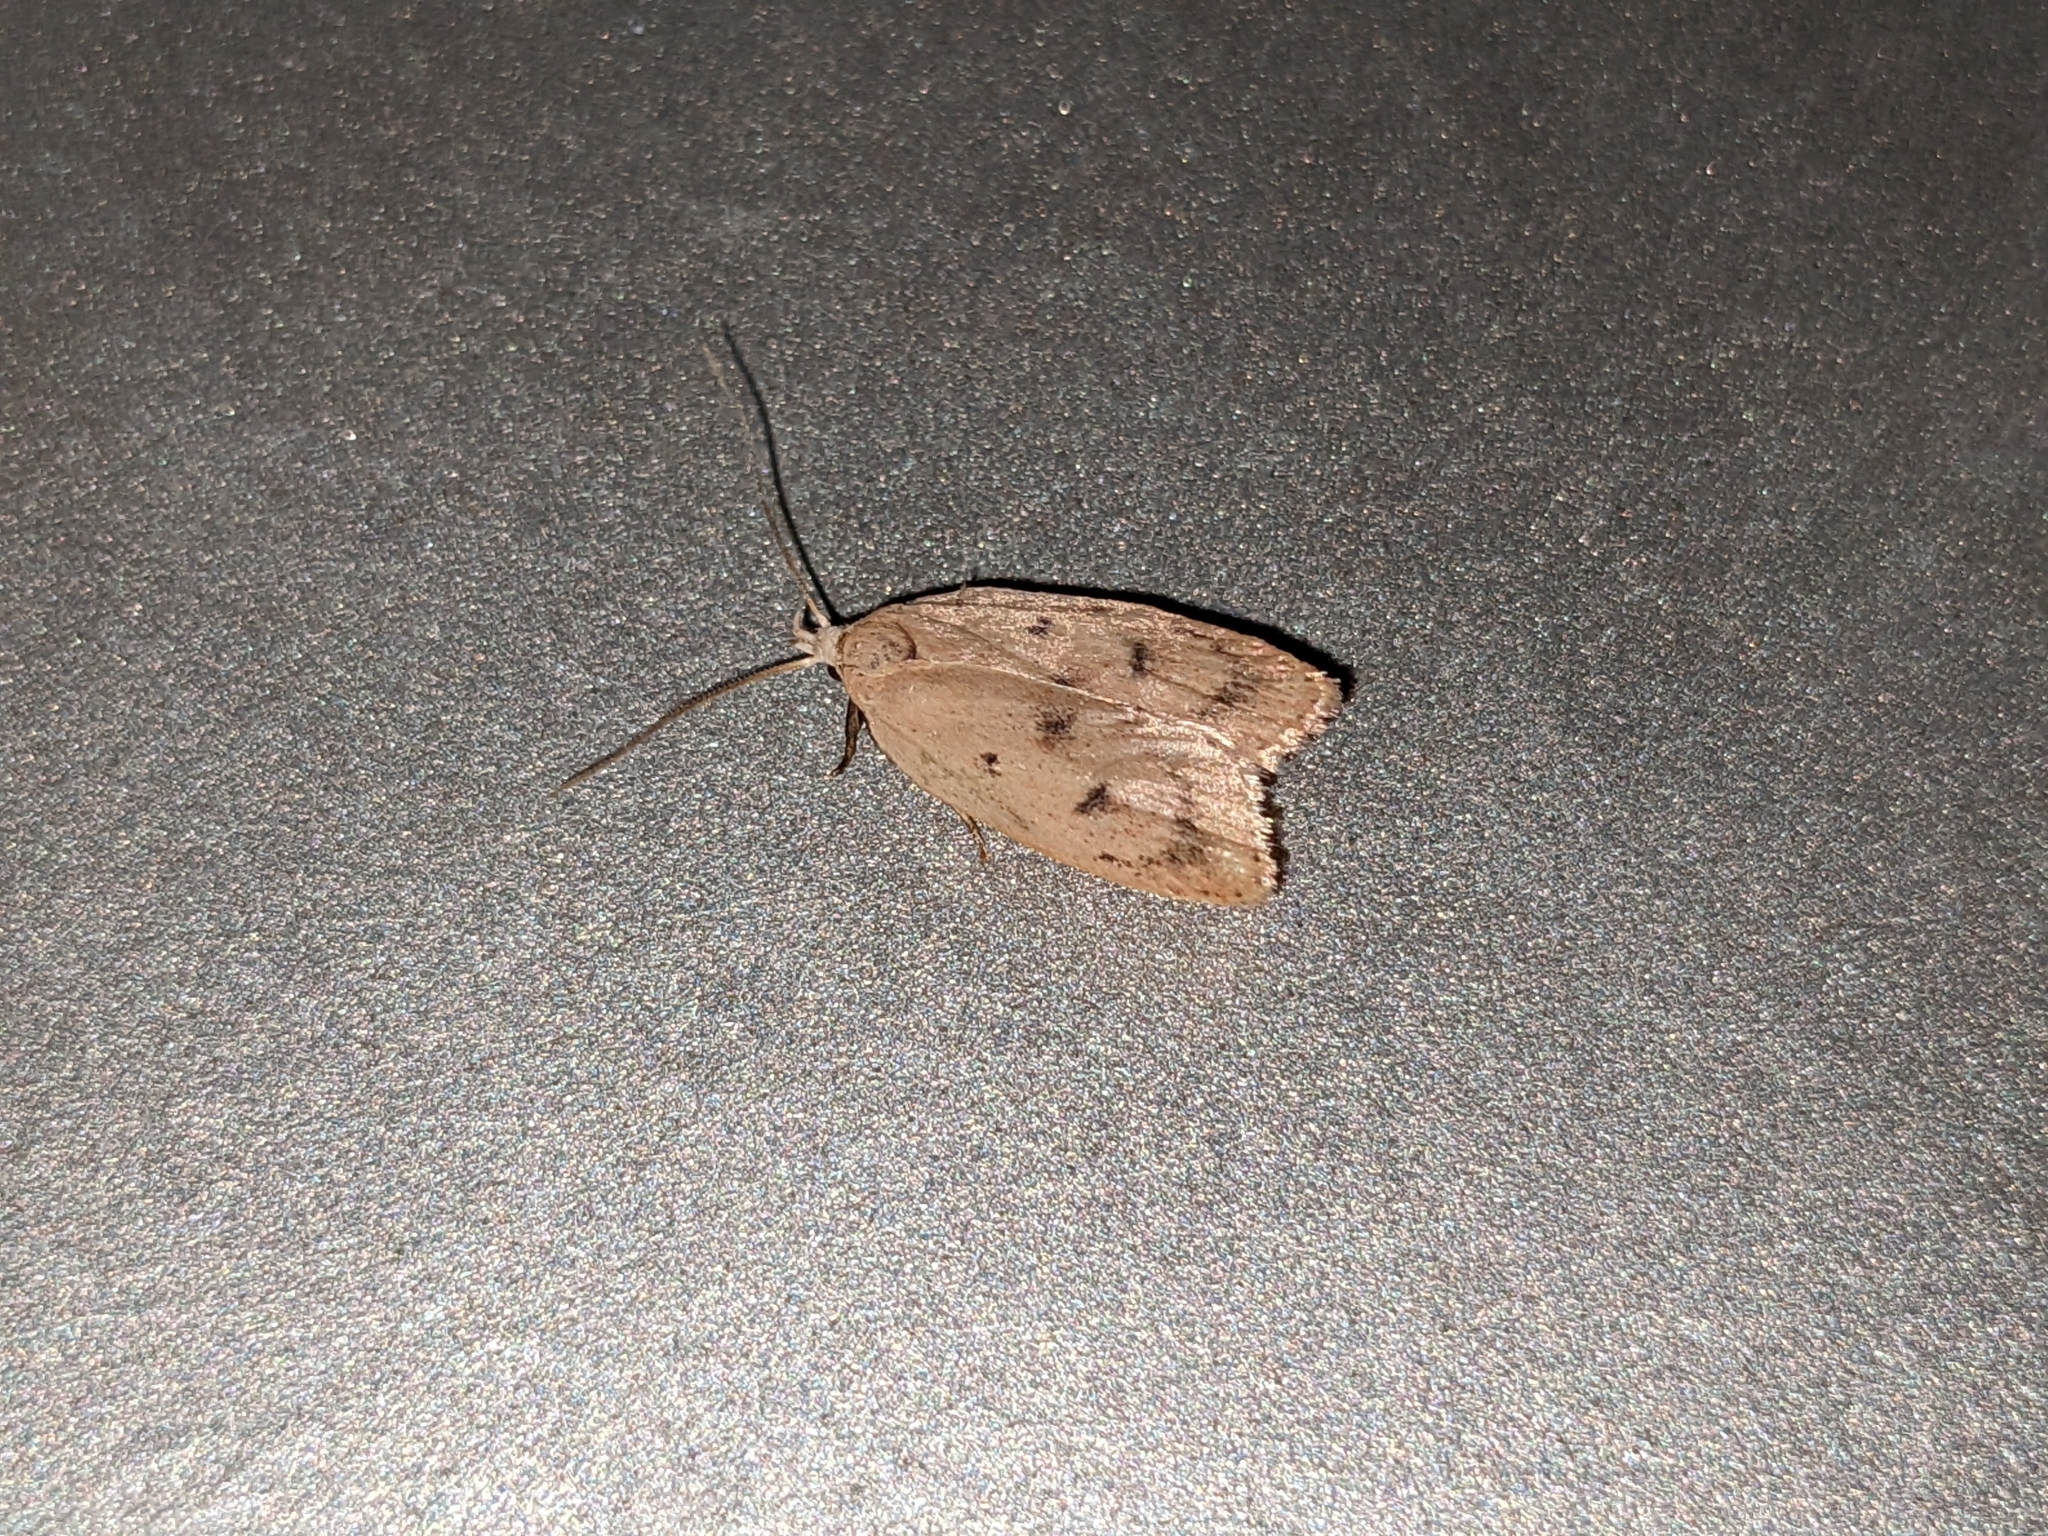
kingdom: Animalia
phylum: Arthropoda
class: Insecta
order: Lepidoptera
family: Peleopodidae
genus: Machimia
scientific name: Machimia tentoriferella
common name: Gold-striped leaftier moth
